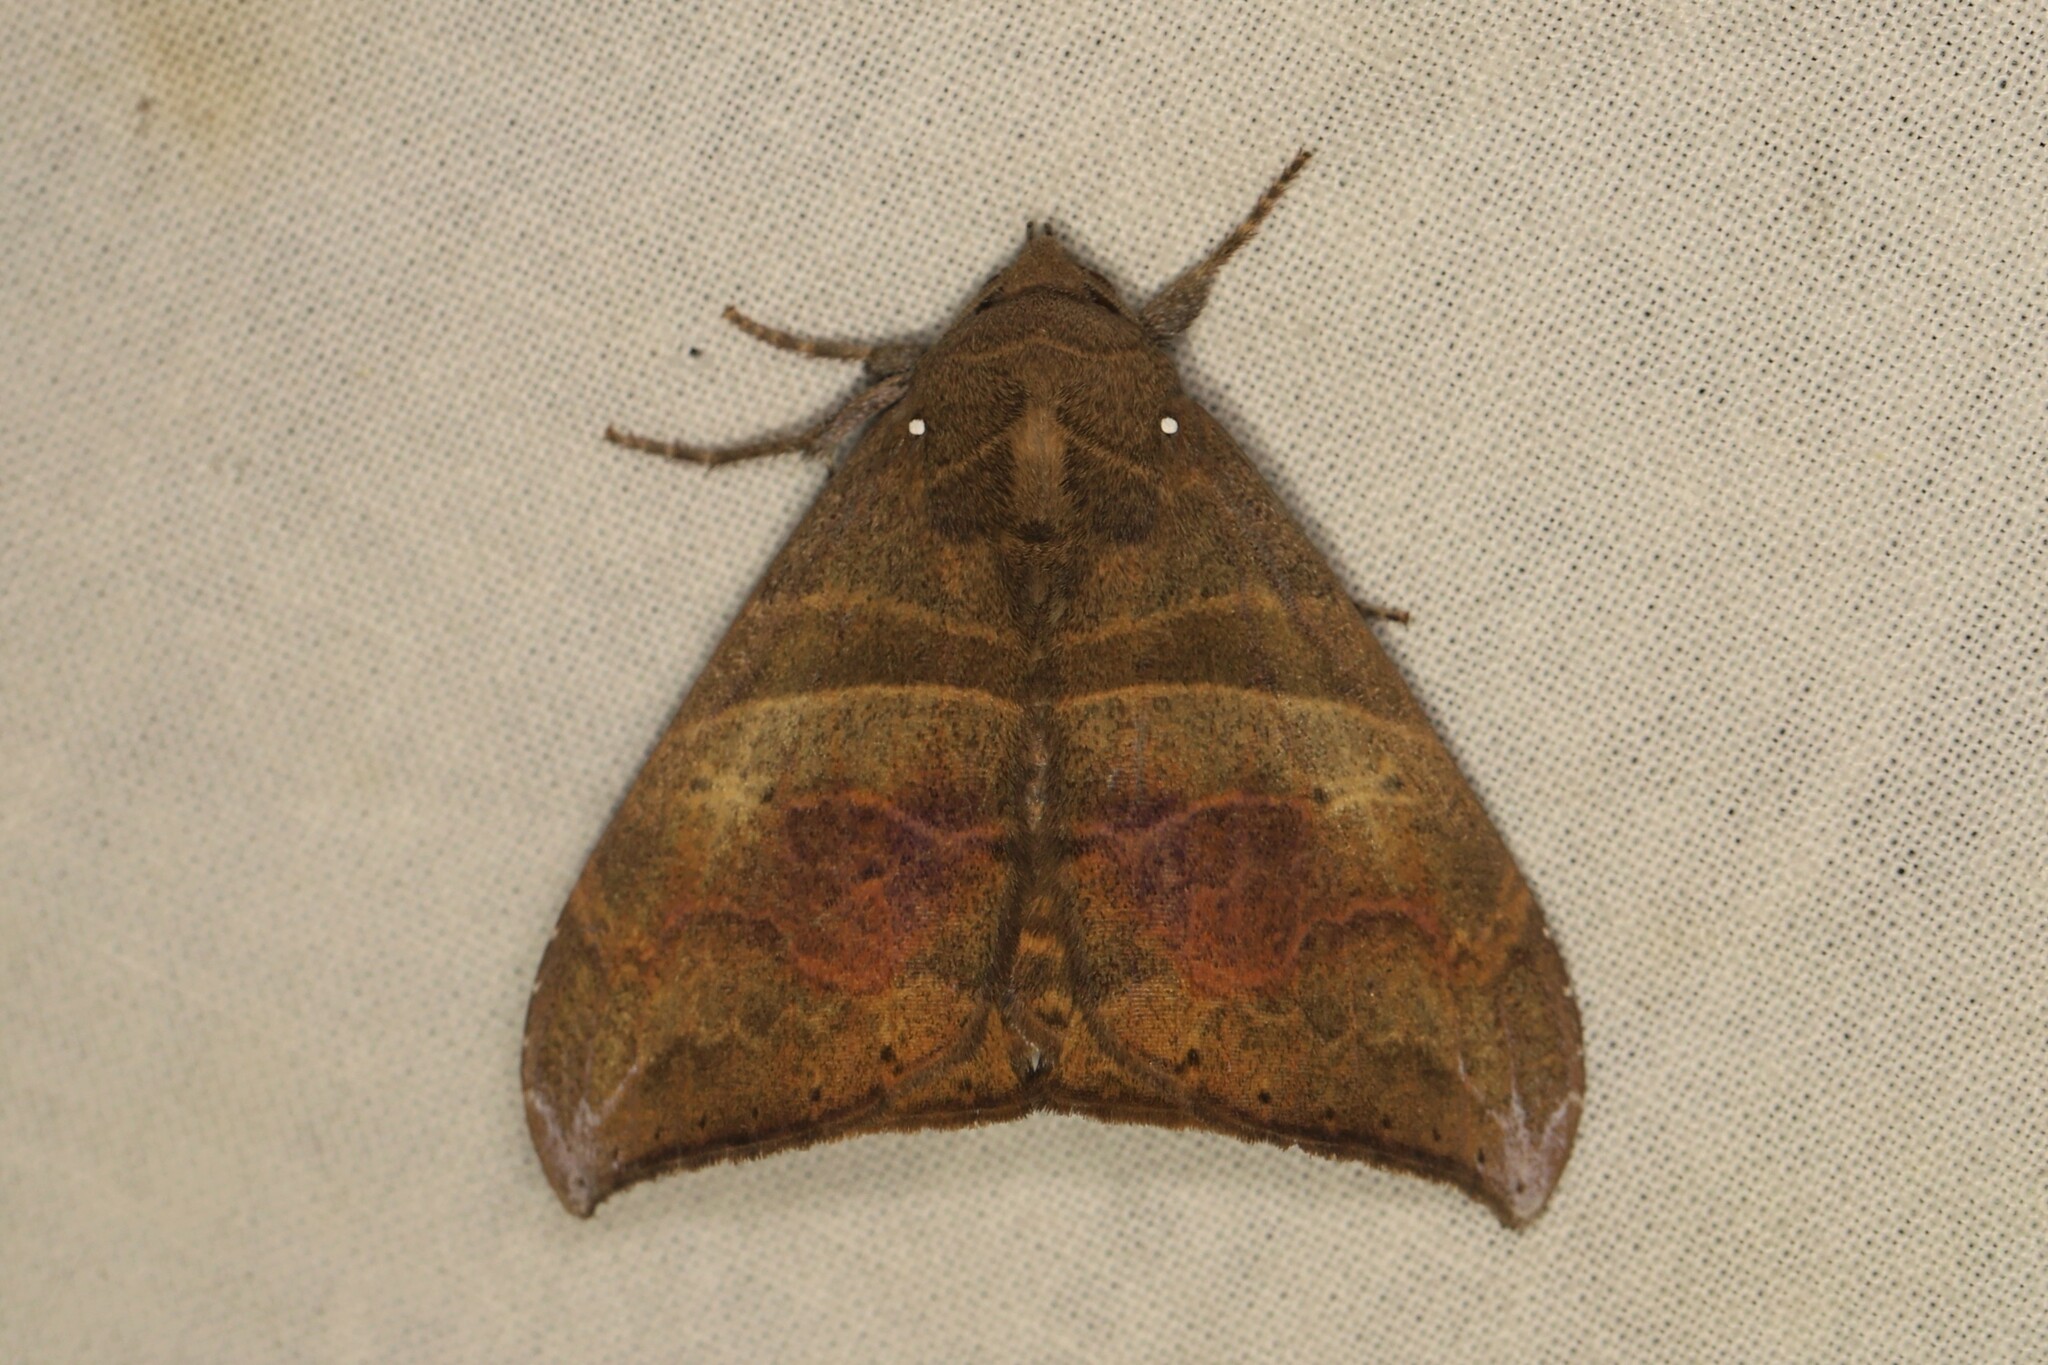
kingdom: Animalia
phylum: Arthropoda
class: Insecta
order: Lepidoptera
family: Erebidae
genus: Neophisma
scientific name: Neophisma
